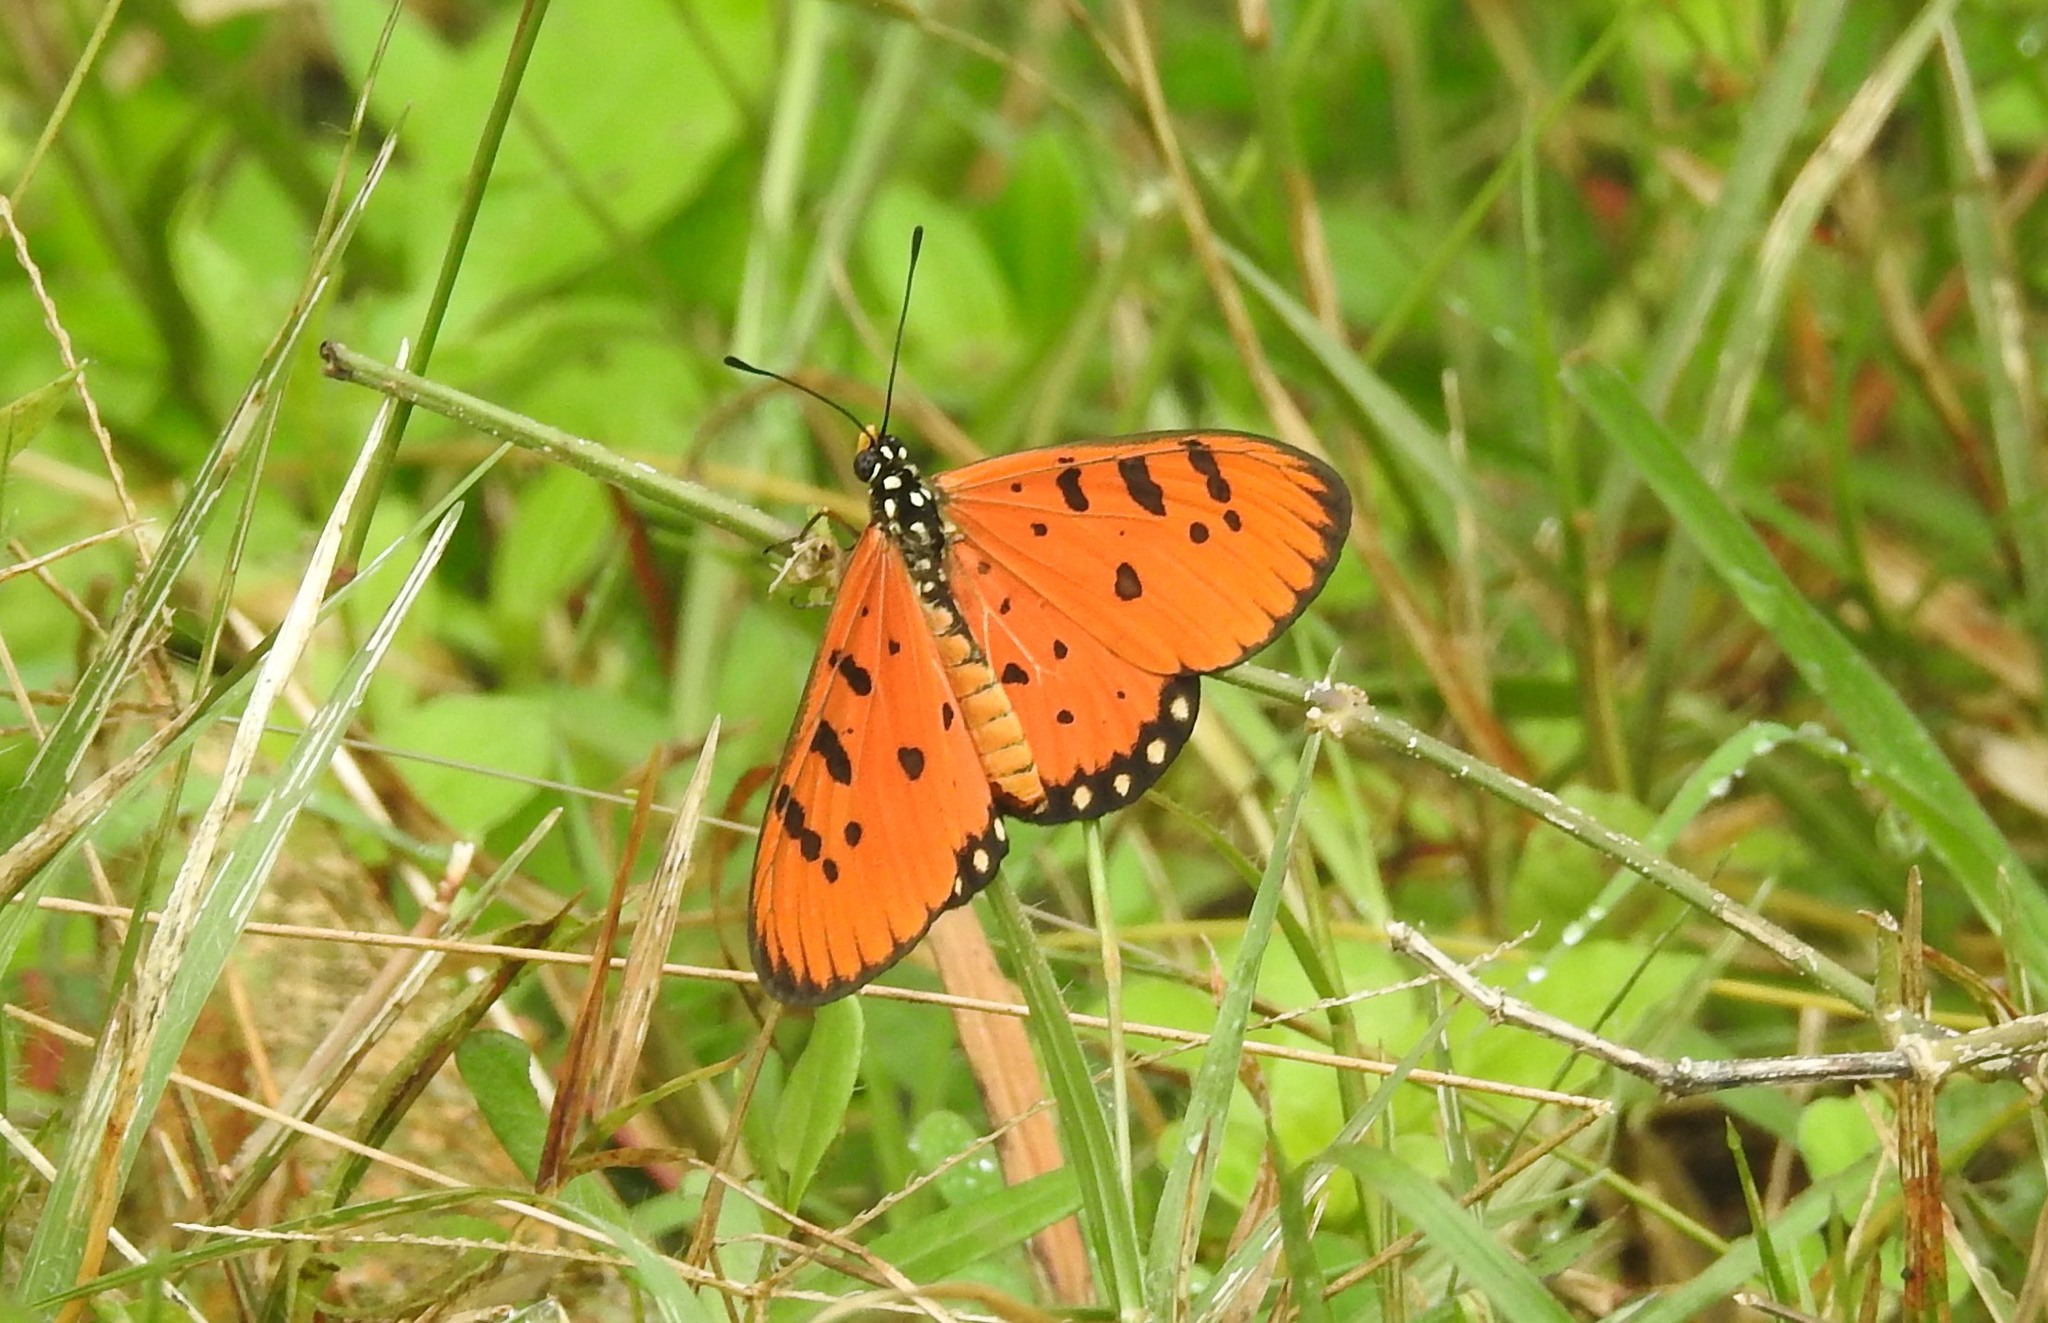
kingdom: Animalia
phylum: Arthropoda
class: Insecta
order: Lepidoptera
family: Nymphalidae
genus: Acraea
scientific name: Acraea terpsicore
